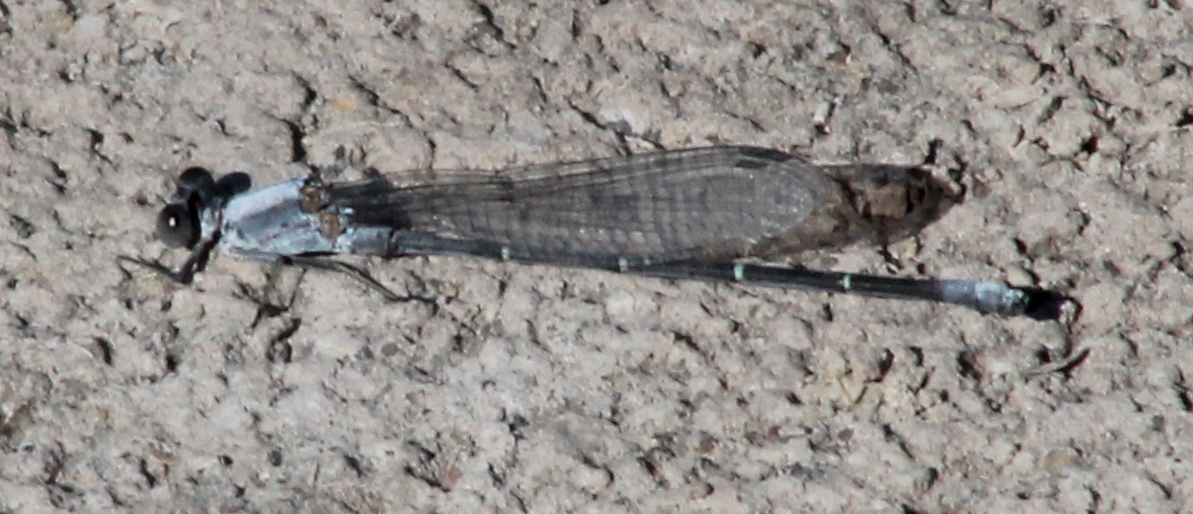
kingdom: Animalia
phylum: Arthropoda
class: Insecta
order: Odonata
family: Coenagrionidae
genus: Argia
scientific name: Argia moesta
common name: Powdered dancer
